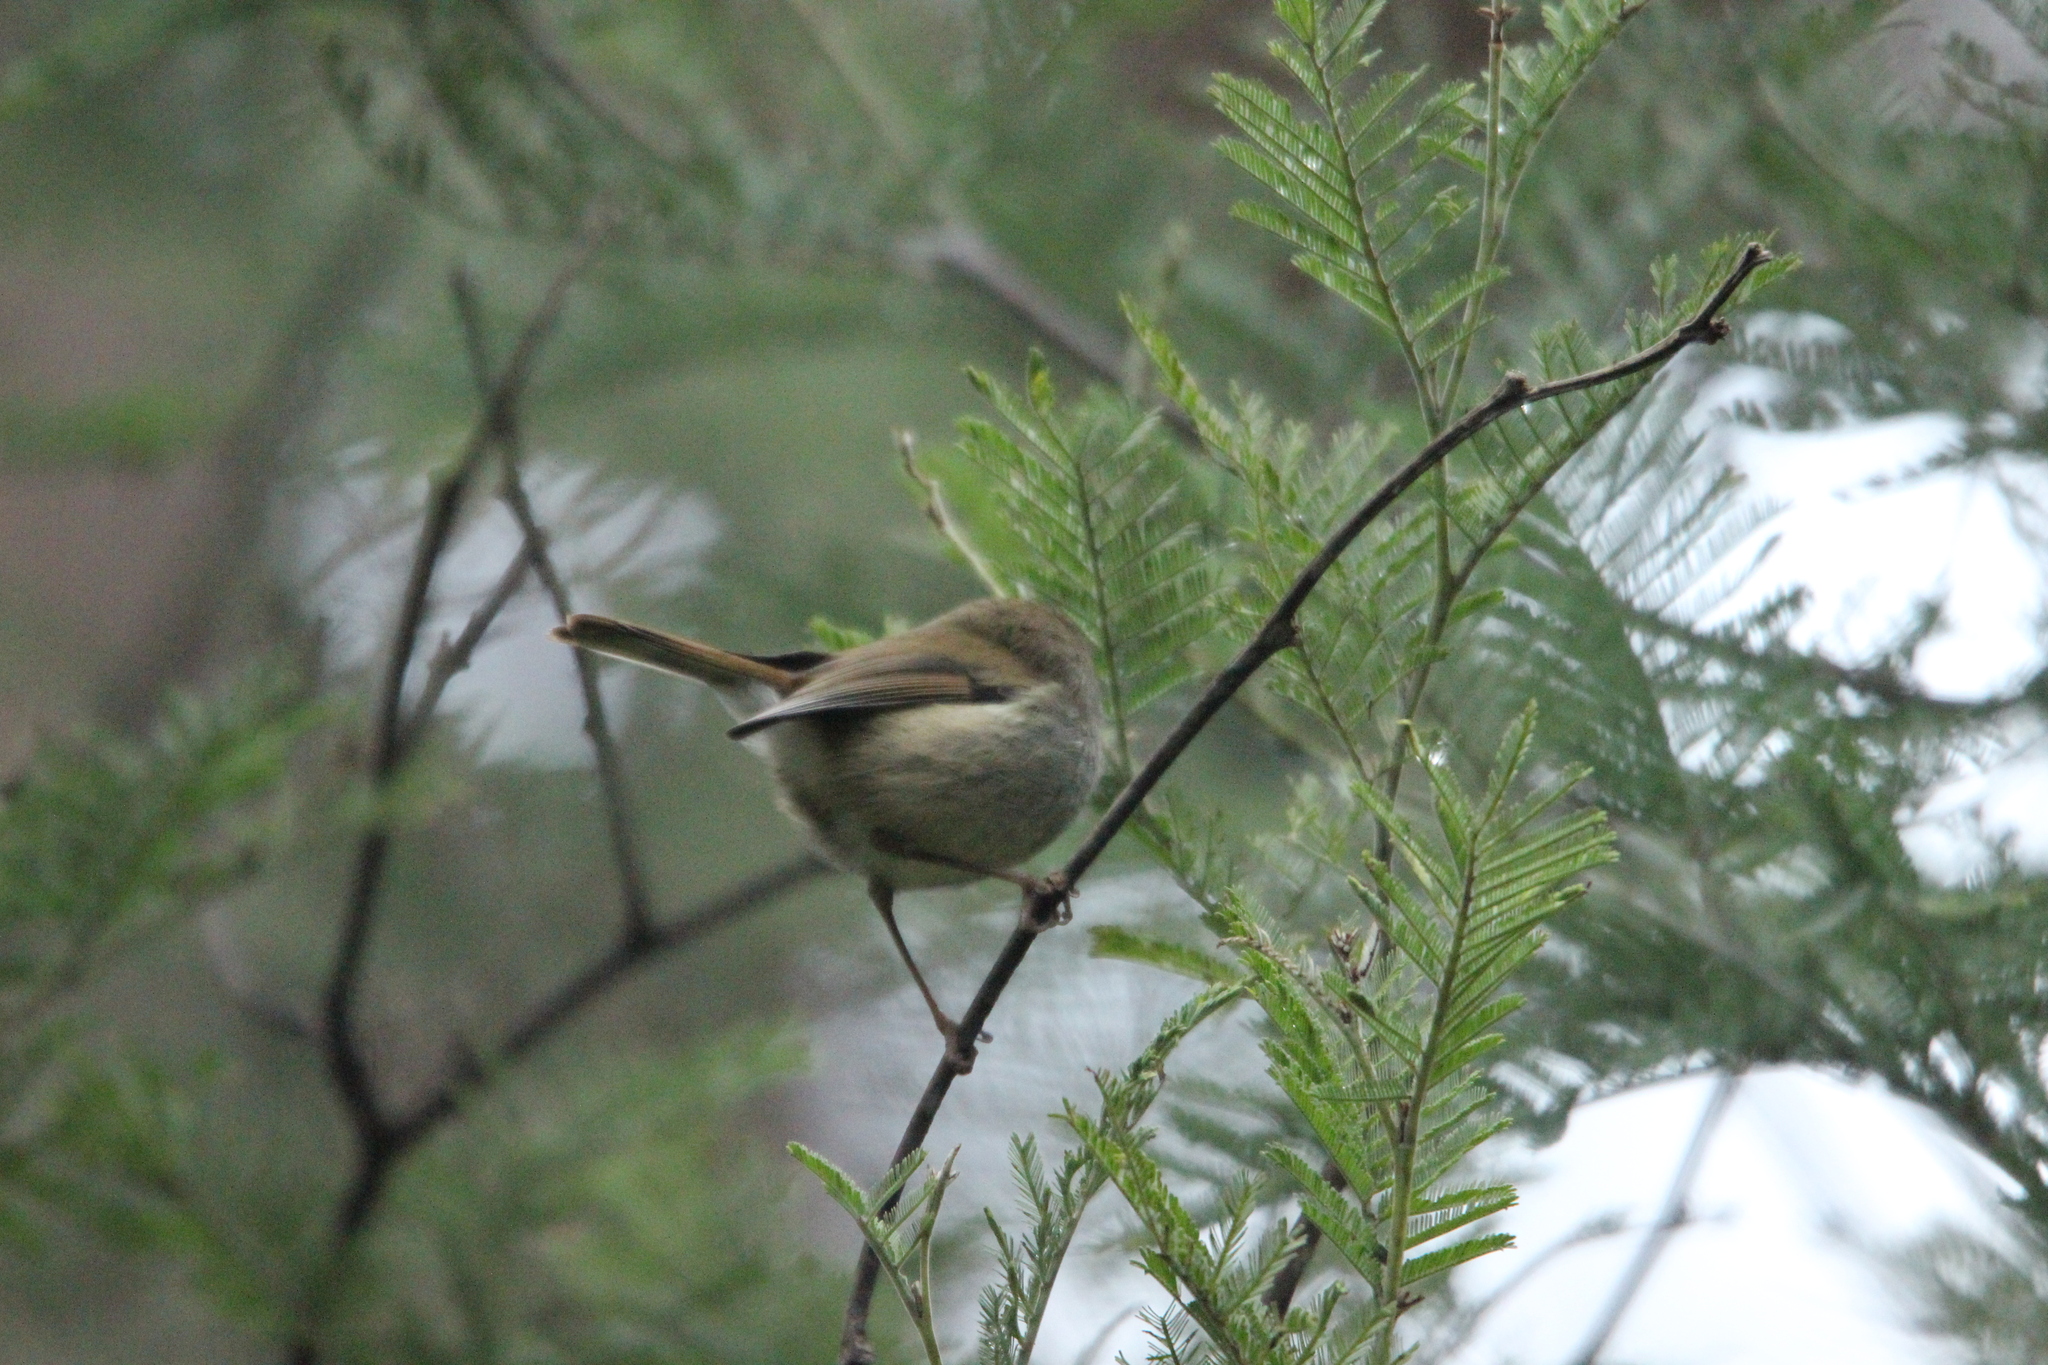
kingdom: Animalia
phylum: Chordata
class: Aves
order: Passeriformes
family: Acanthizidae
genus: Acanthiza
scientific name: Acanthiza ewingii
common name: Tasmanian thornbill
